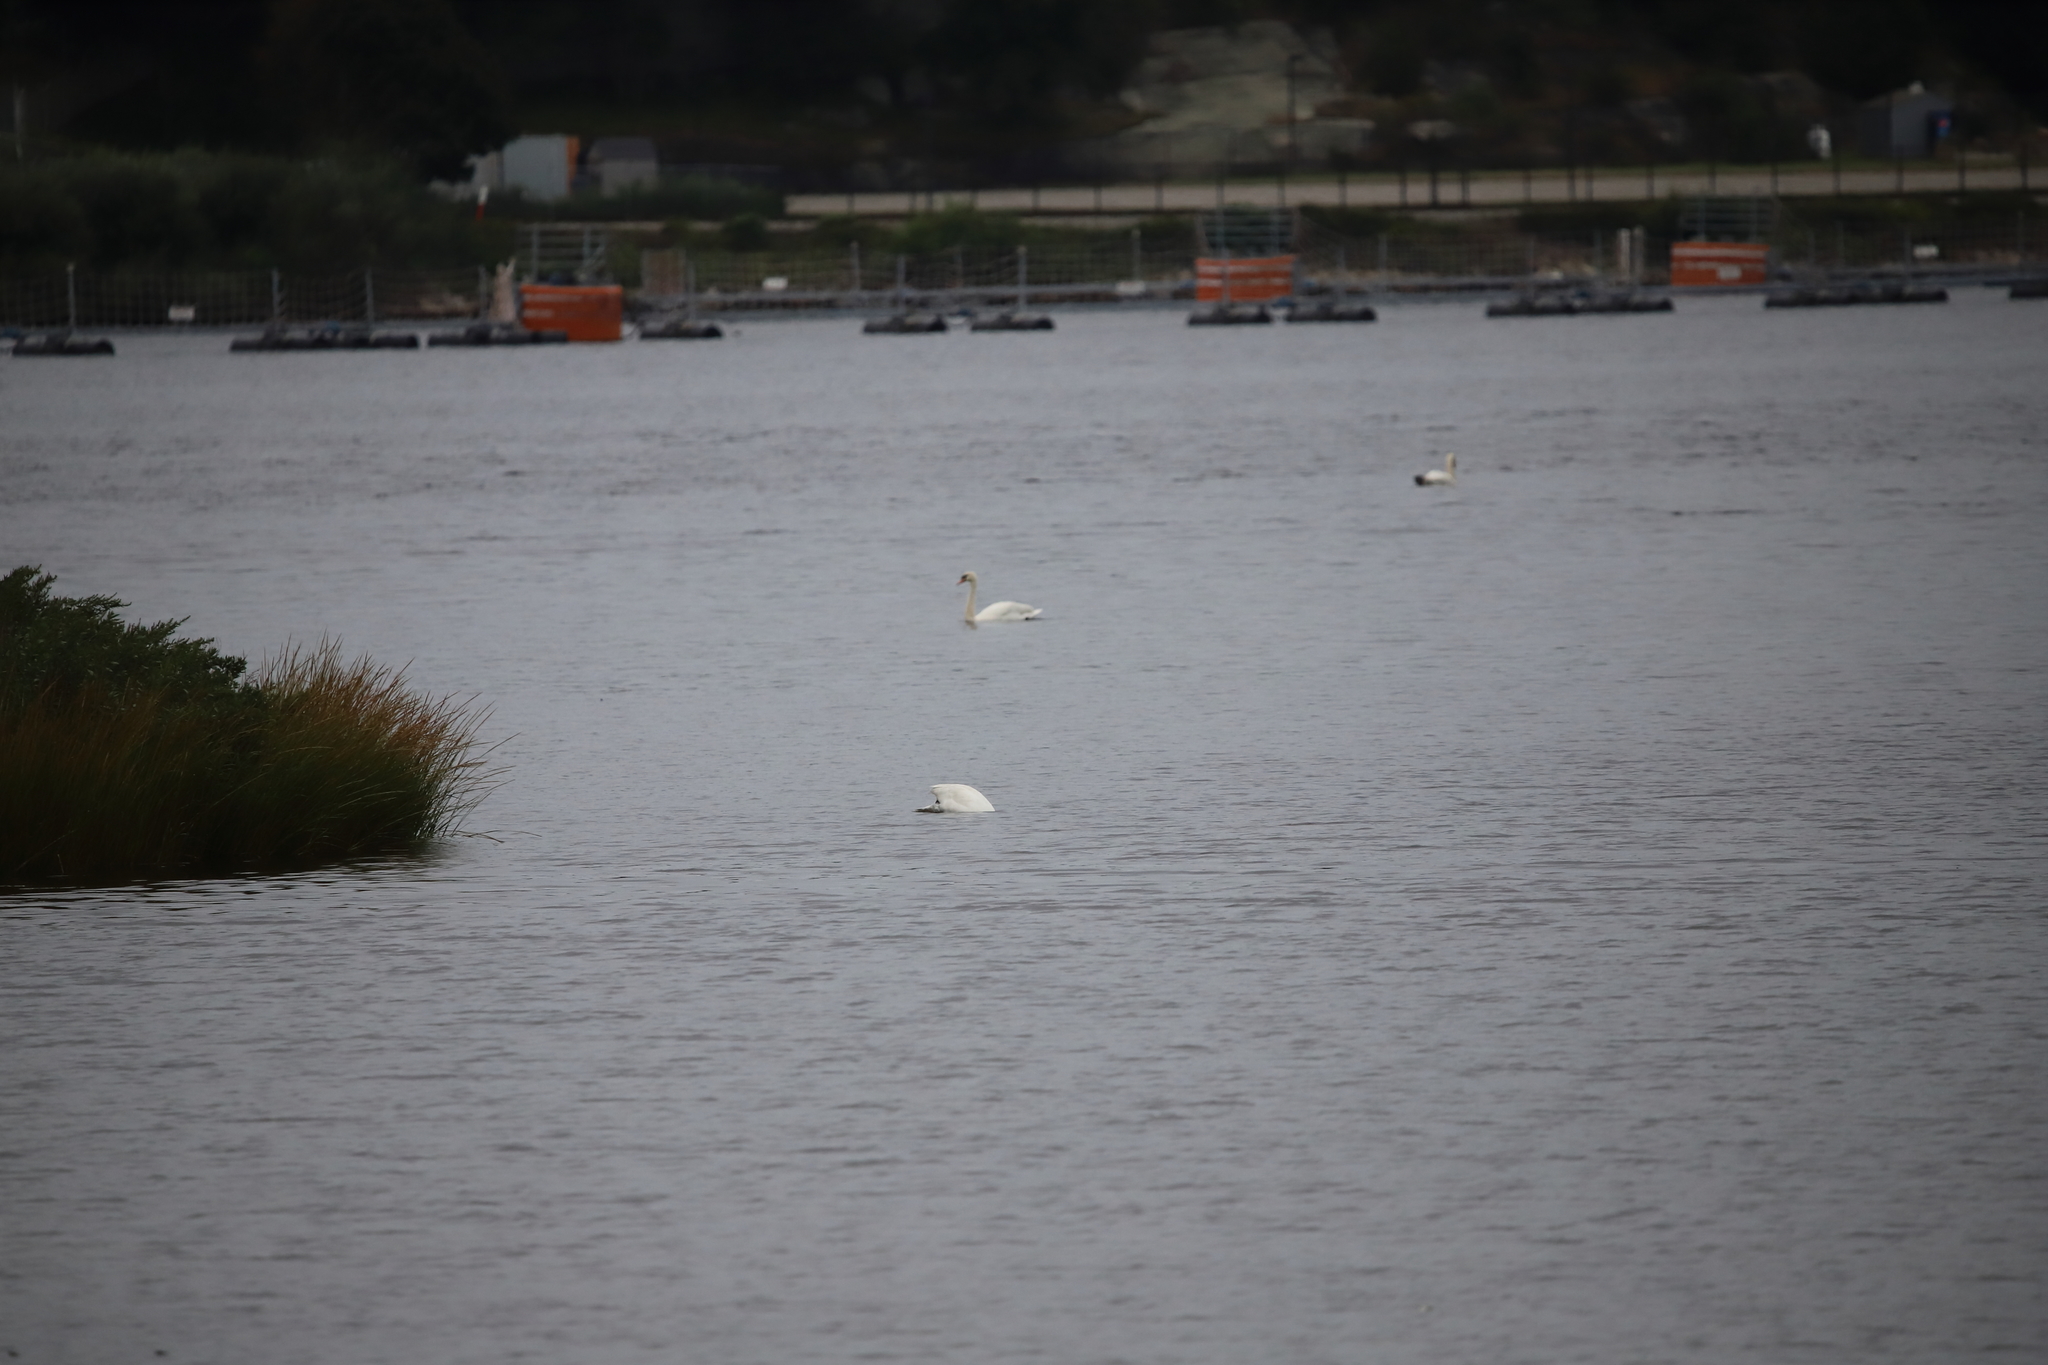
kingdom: Animalia
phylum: Chordata
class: Aves
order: Anseriformes
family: Anatidae
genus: Cygnus
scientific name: Cygnus olor
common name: Mute swan
